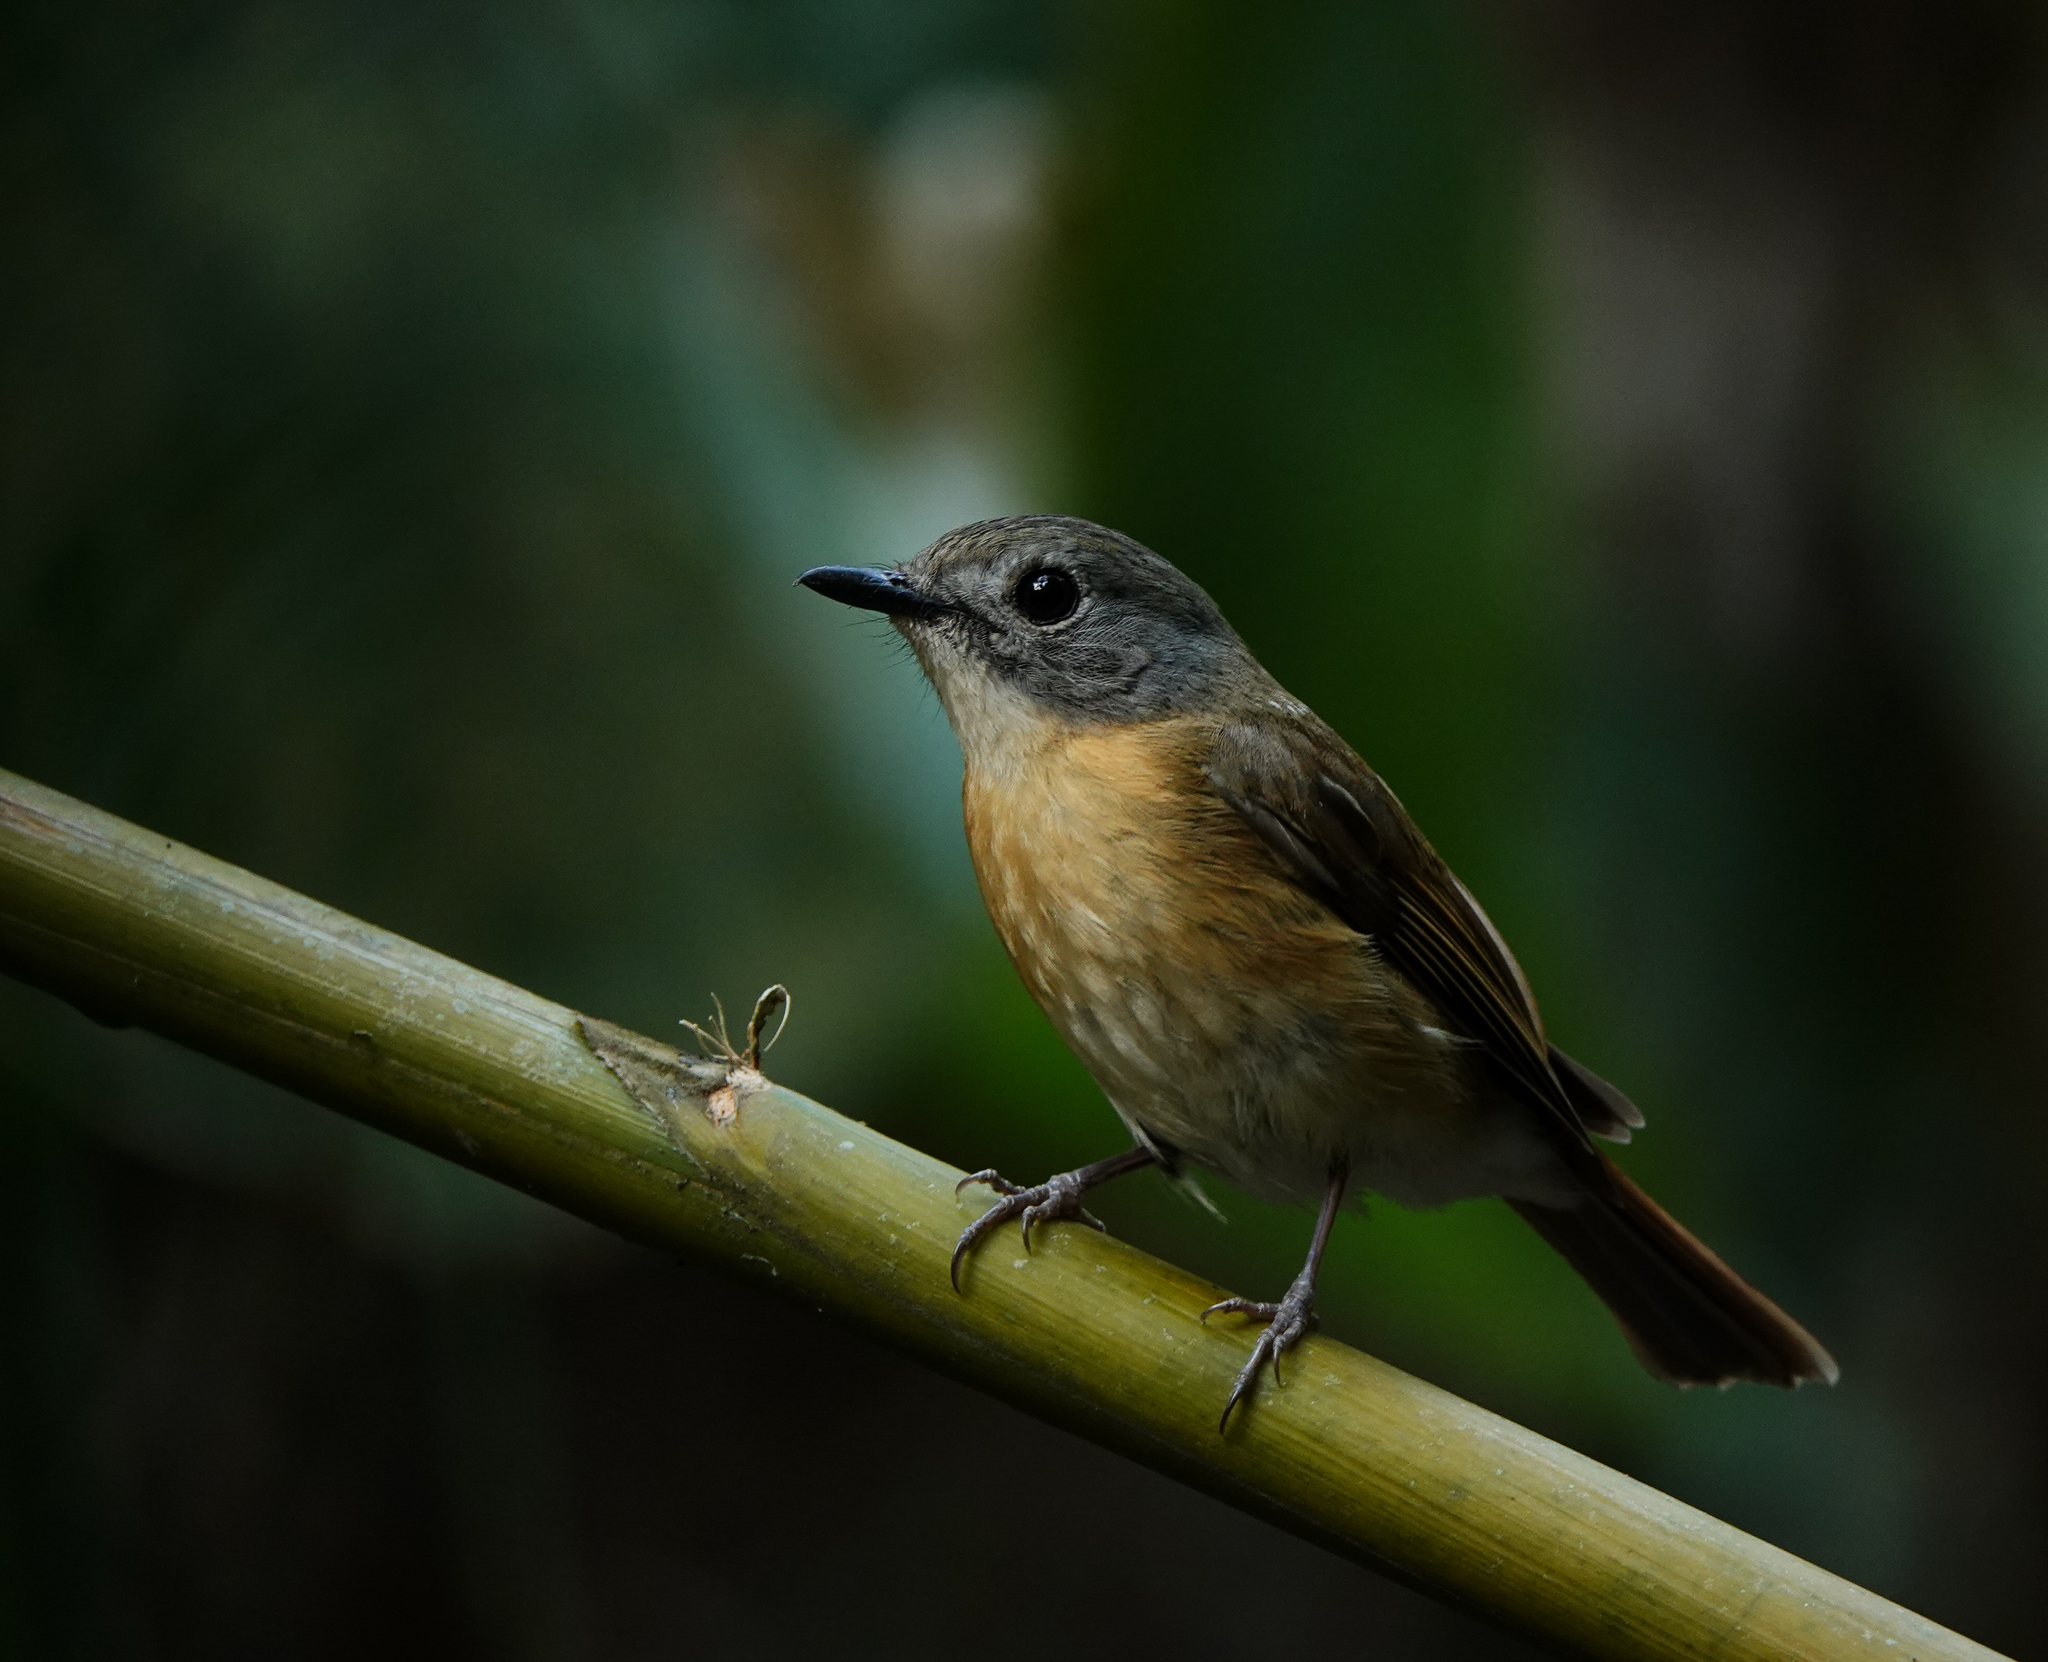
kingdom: Animalia
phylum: Chordata
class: Aves
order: Passeriformes
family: Muscicapidae
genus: Cyornis
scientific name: Cyornis poliogenys
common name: Pale-chinned blue flycatcher
